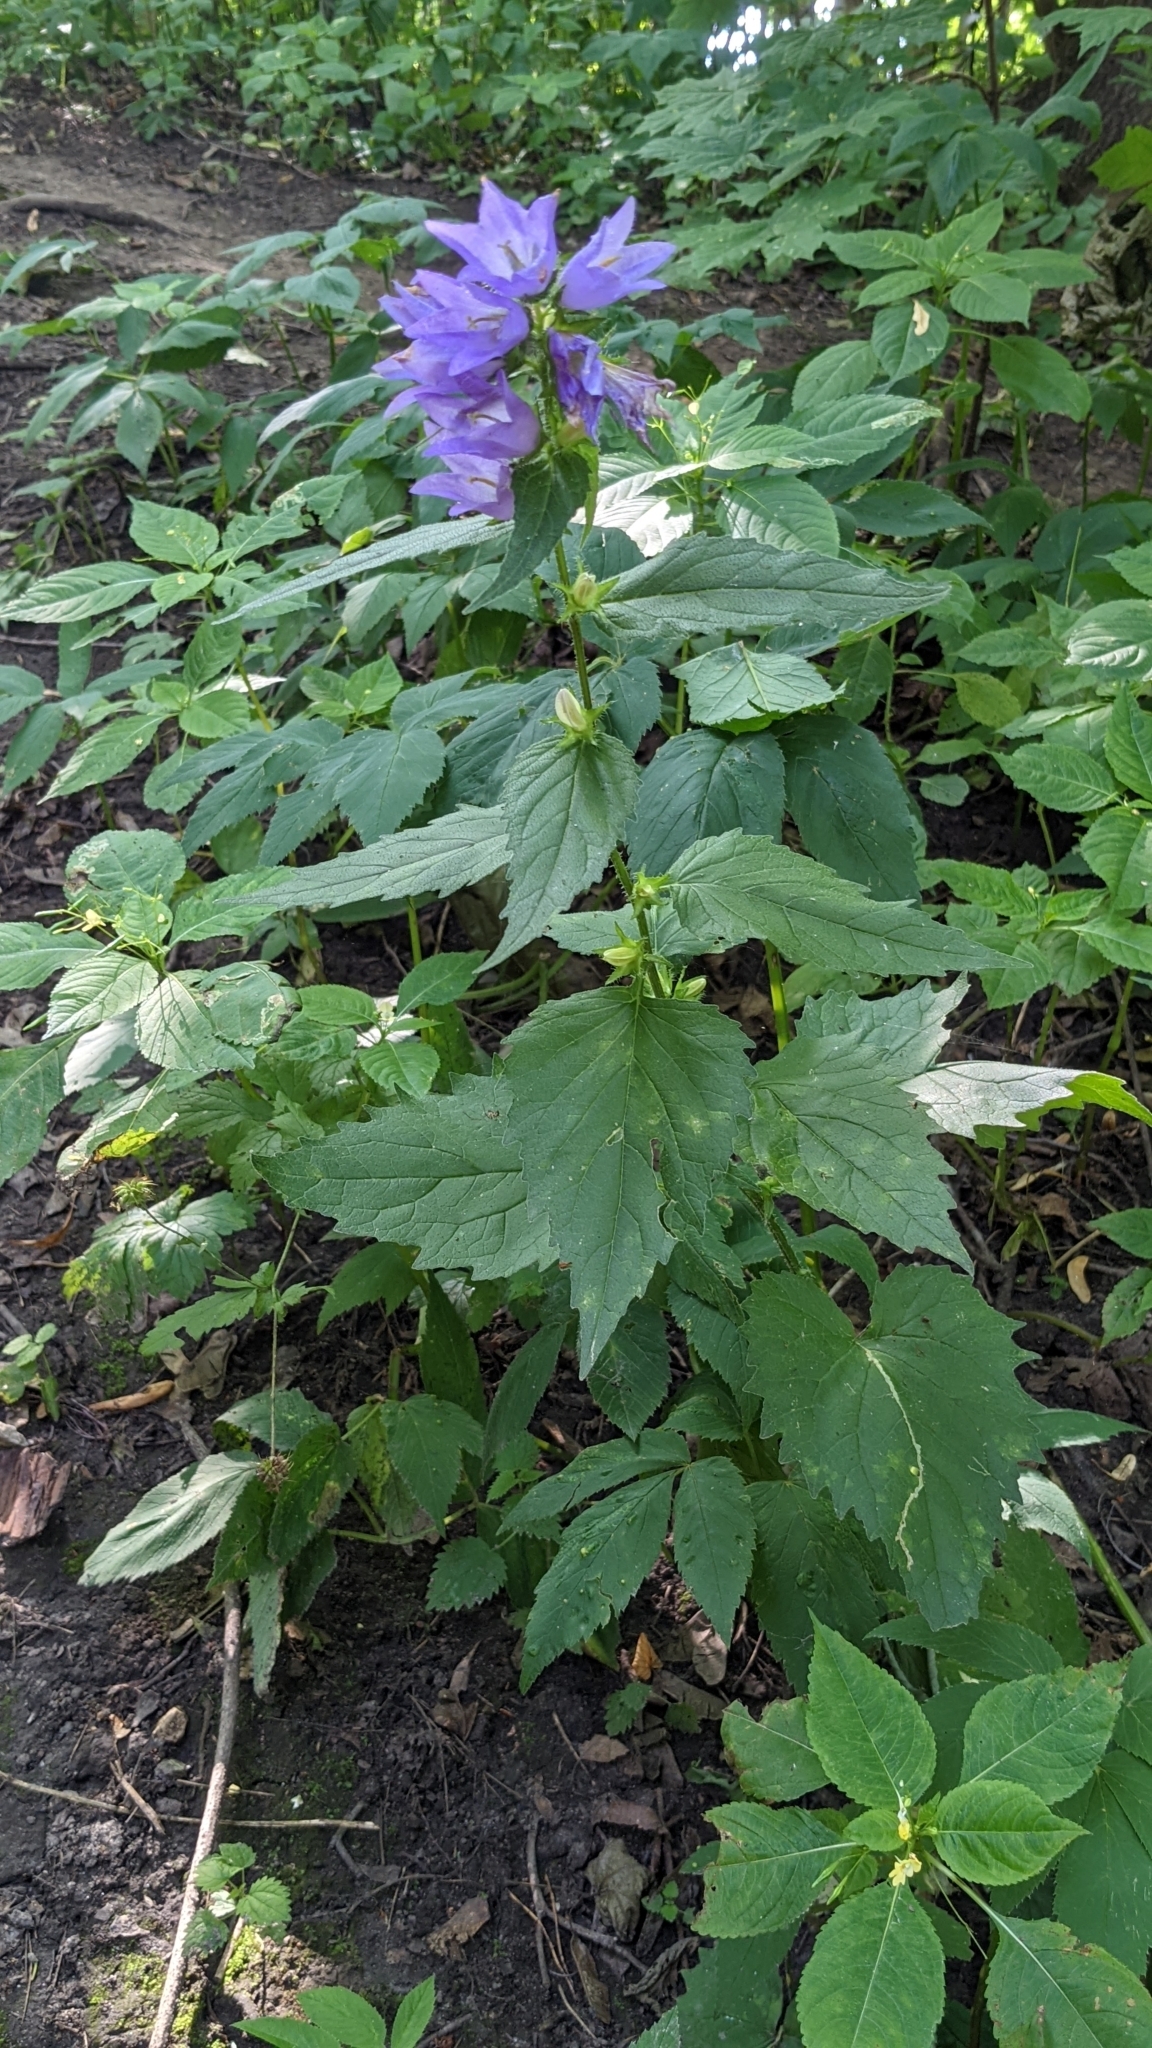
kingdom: Plantae
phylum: Tracheophyta
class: Magnoliopsida
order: Asterales
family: Campanulaceae
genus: Campanula
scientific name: Campanula trachelium
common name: Nettle-leaved bellflower
